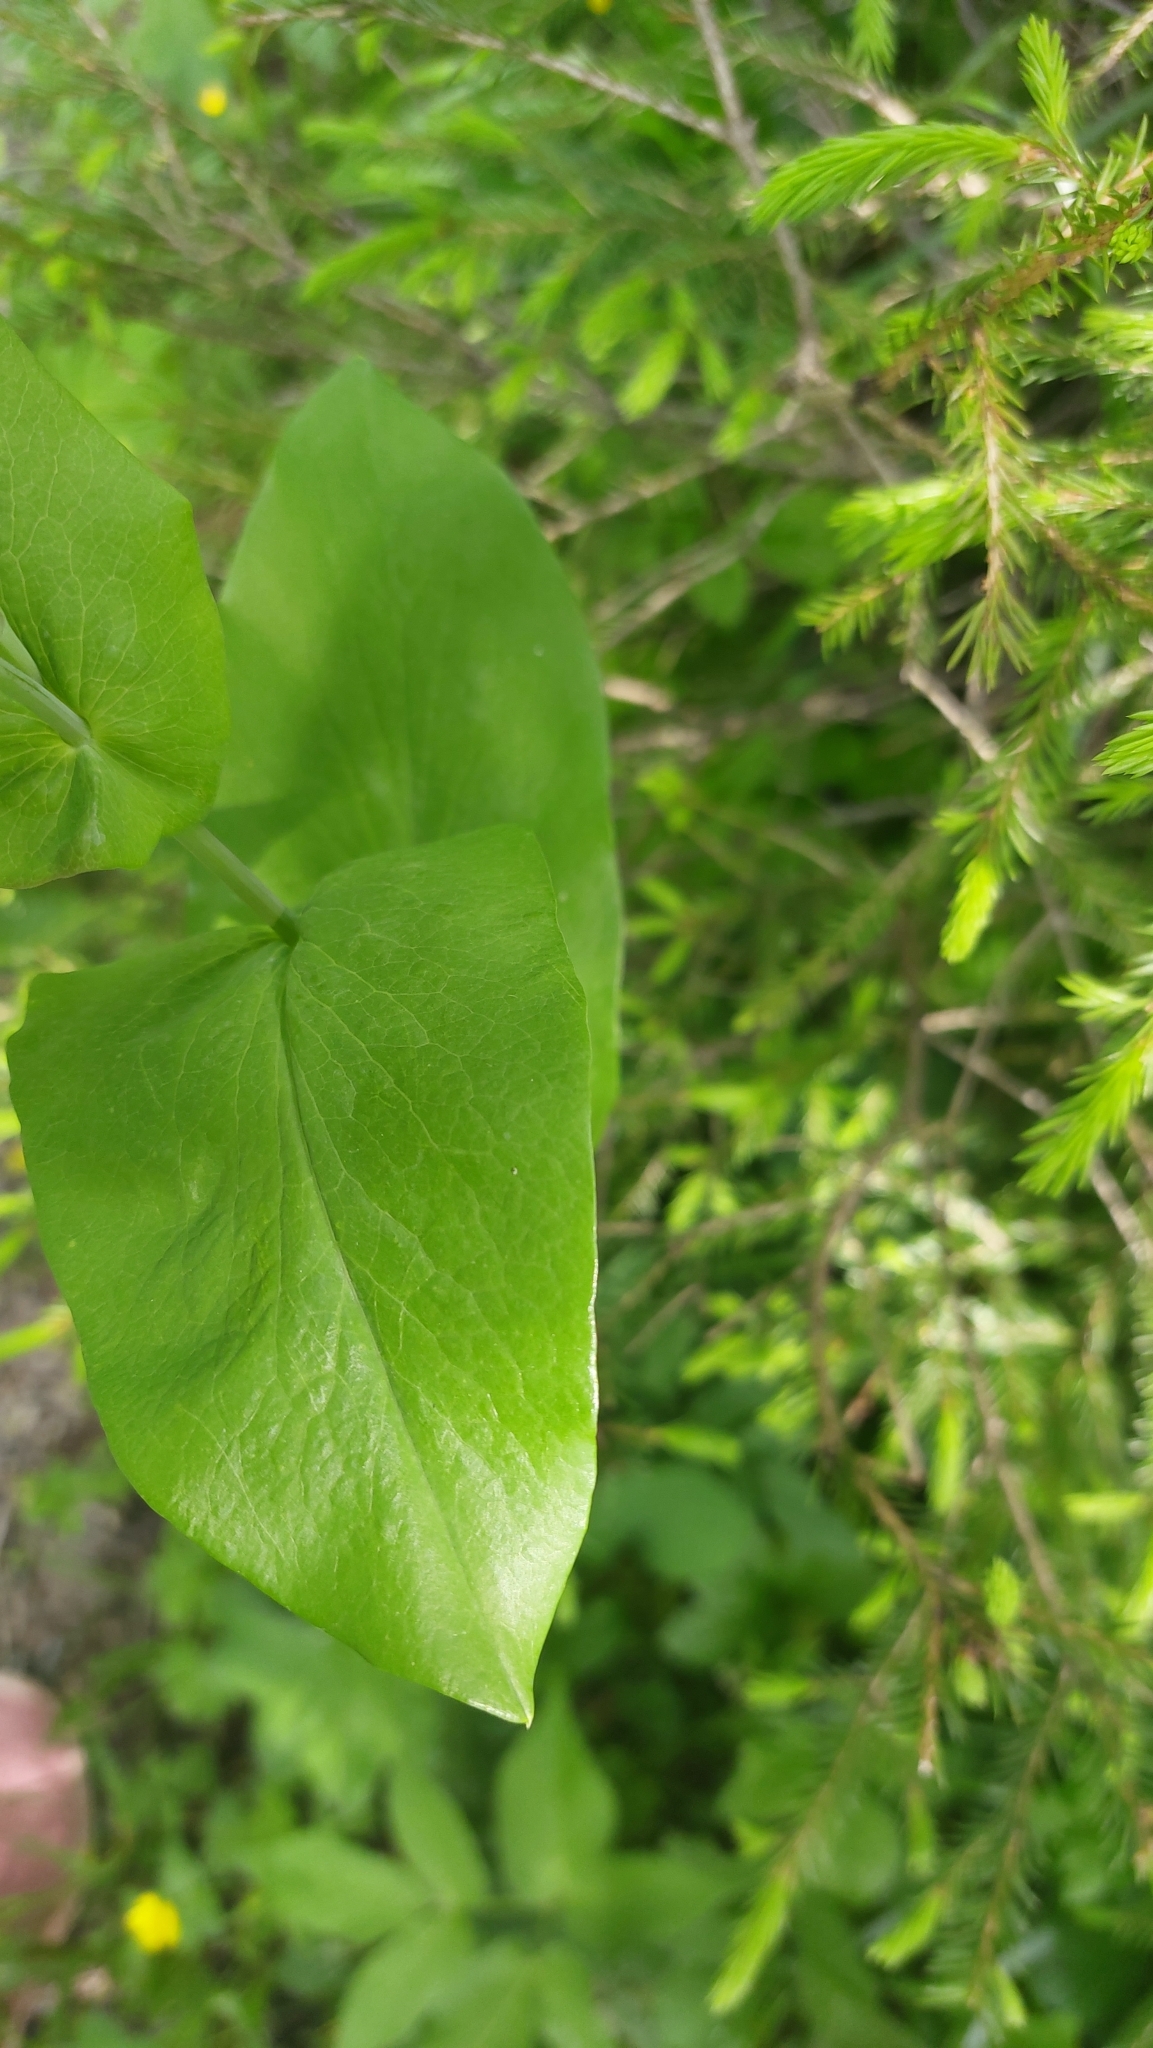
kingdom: Plantae
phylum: Tracheophyta
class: Magnoliopsida
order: Apiales
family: Apiaceae
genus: Bupleurum
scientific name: Bupleurum aureum
